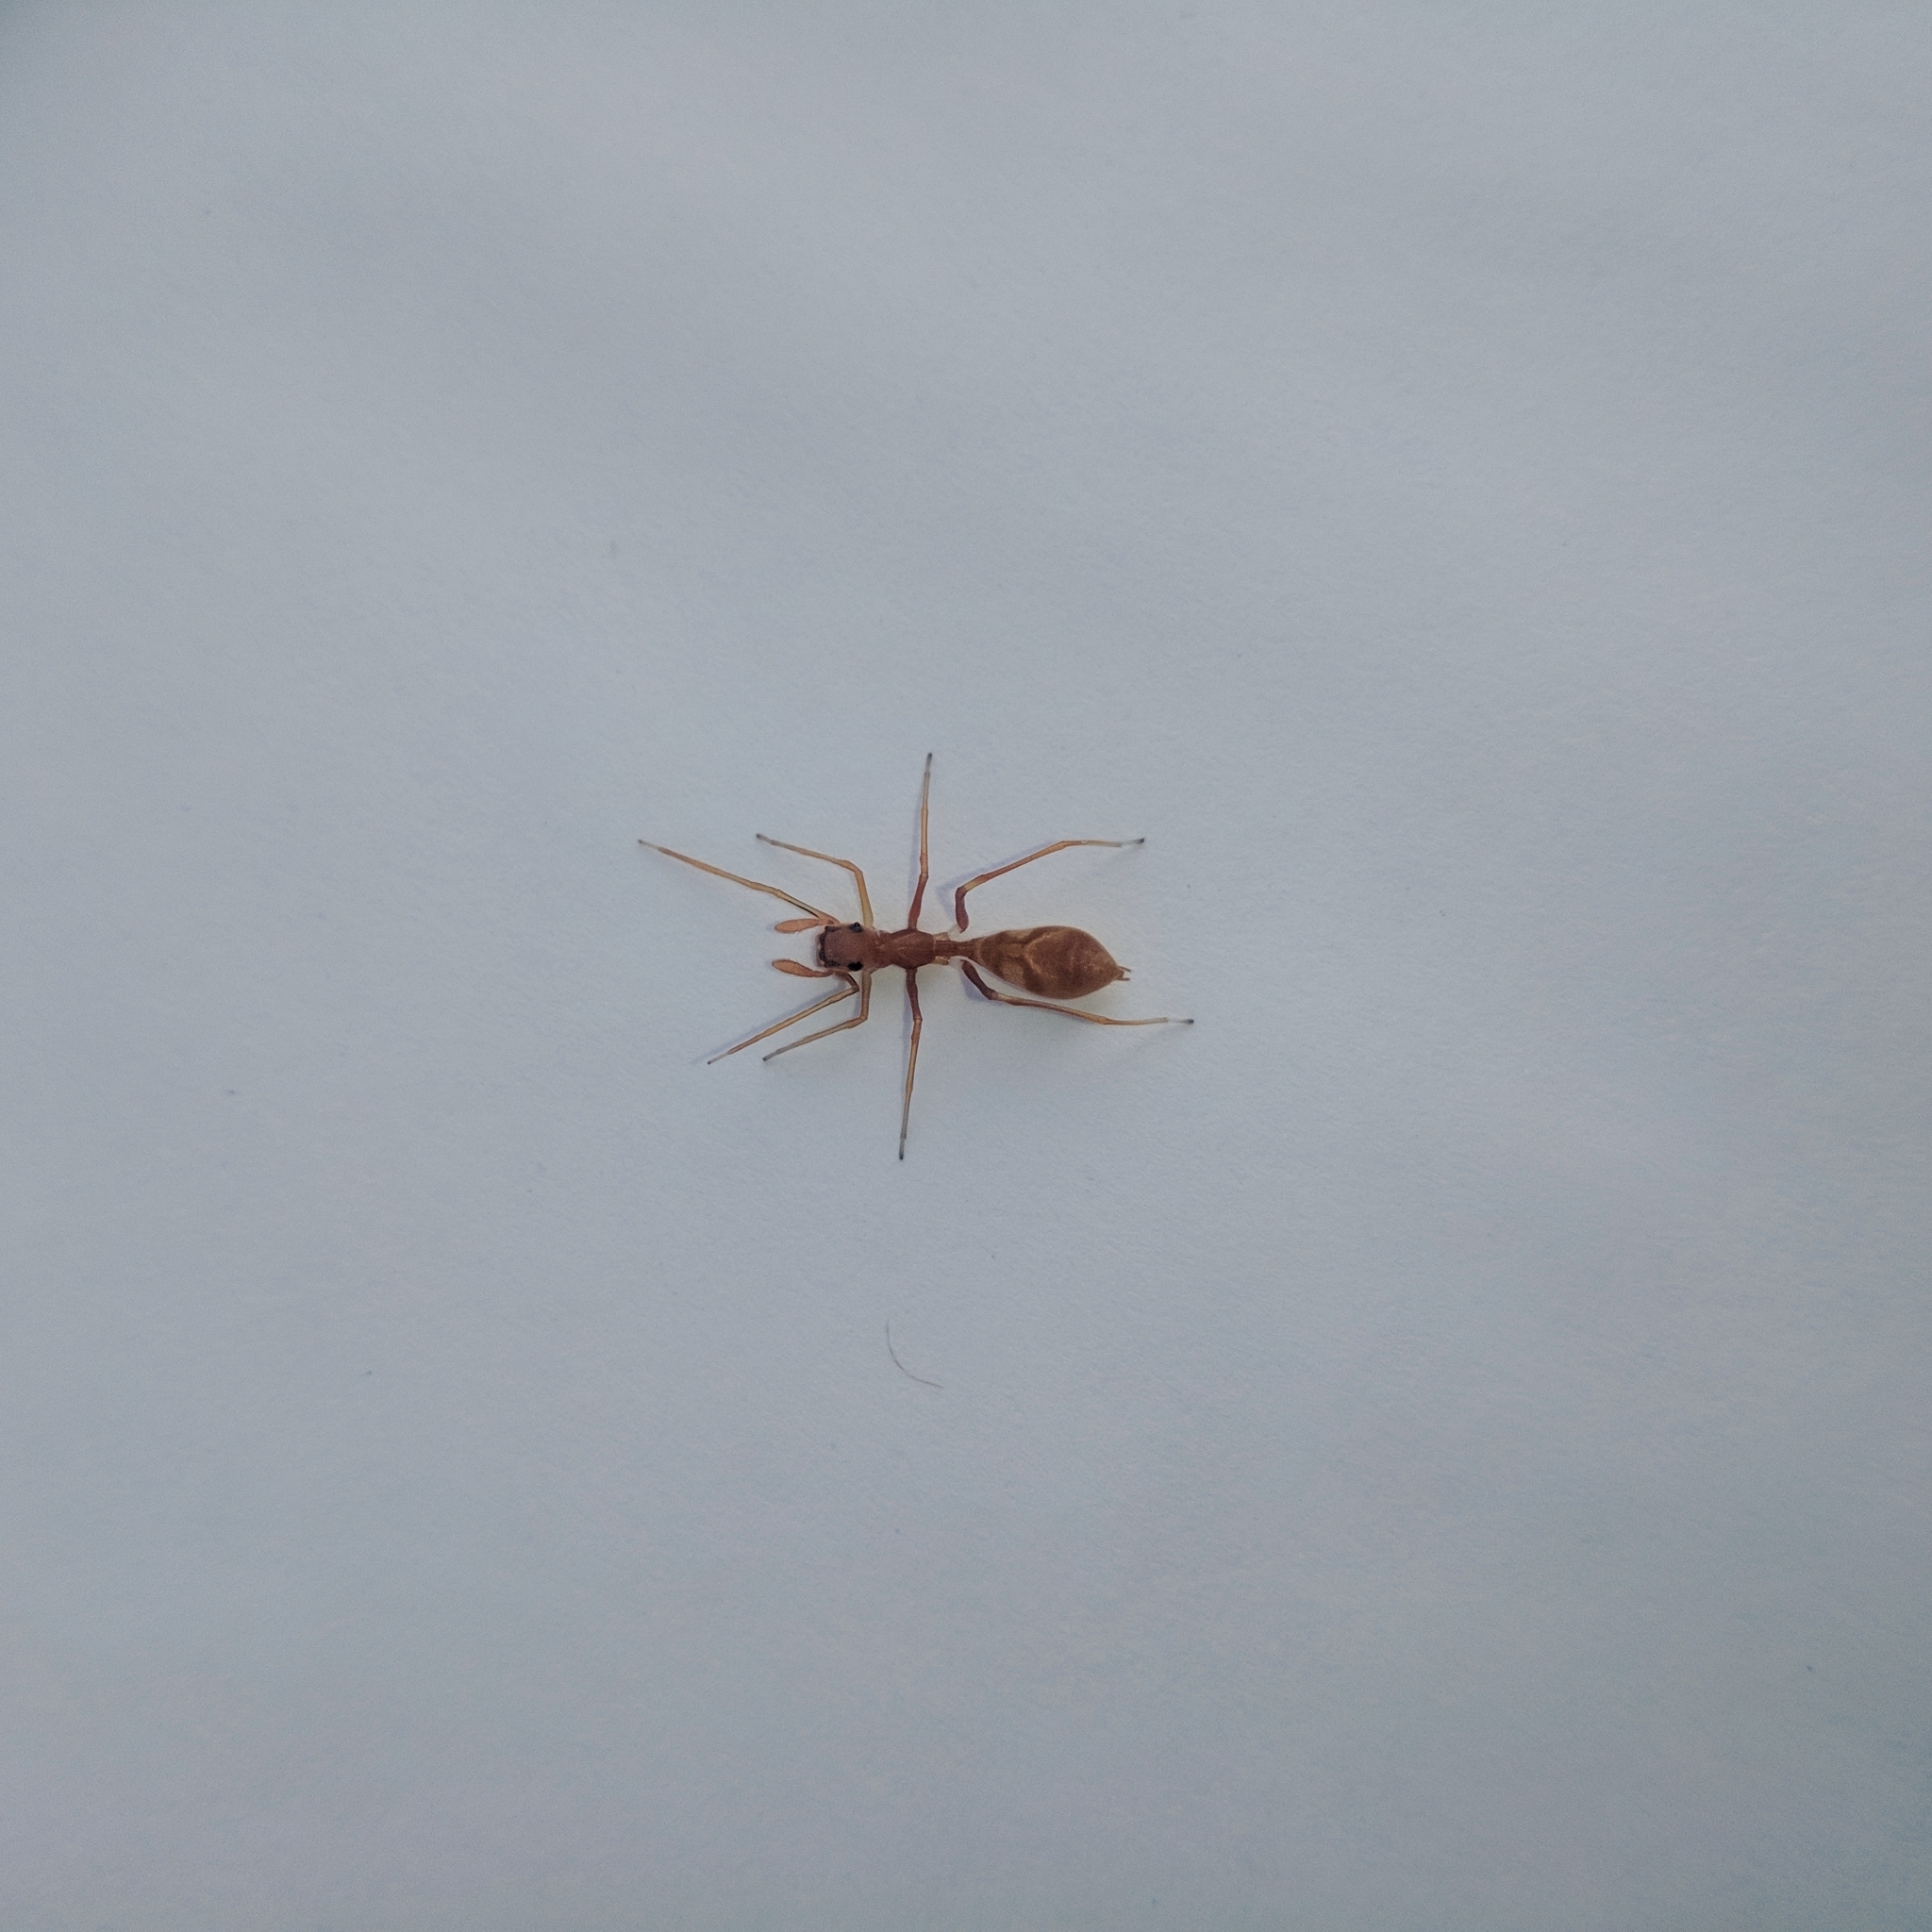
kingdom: Animalia
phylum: Arthropoda
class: Arachnida
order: Araneae
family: Salticidae
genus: Myrmaplata
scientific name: Myrmaplata plataleoides
